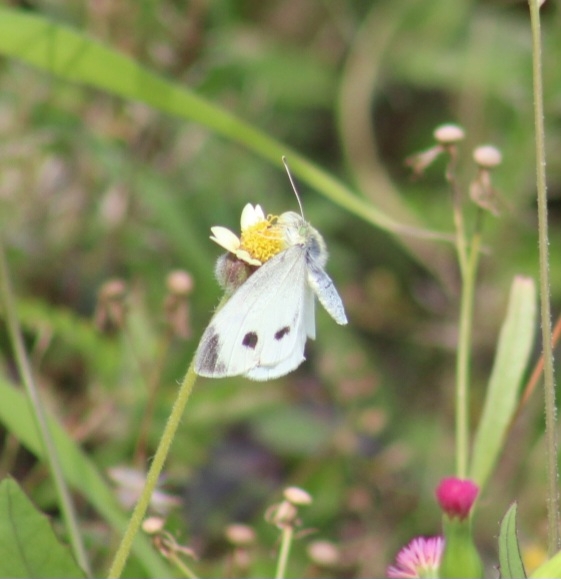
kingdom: Animalia
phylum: Arthropoda
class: Insecta
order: Lepidoptera
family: Pieridae
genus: Pieris
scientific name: Pieris rapae
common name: Small white
